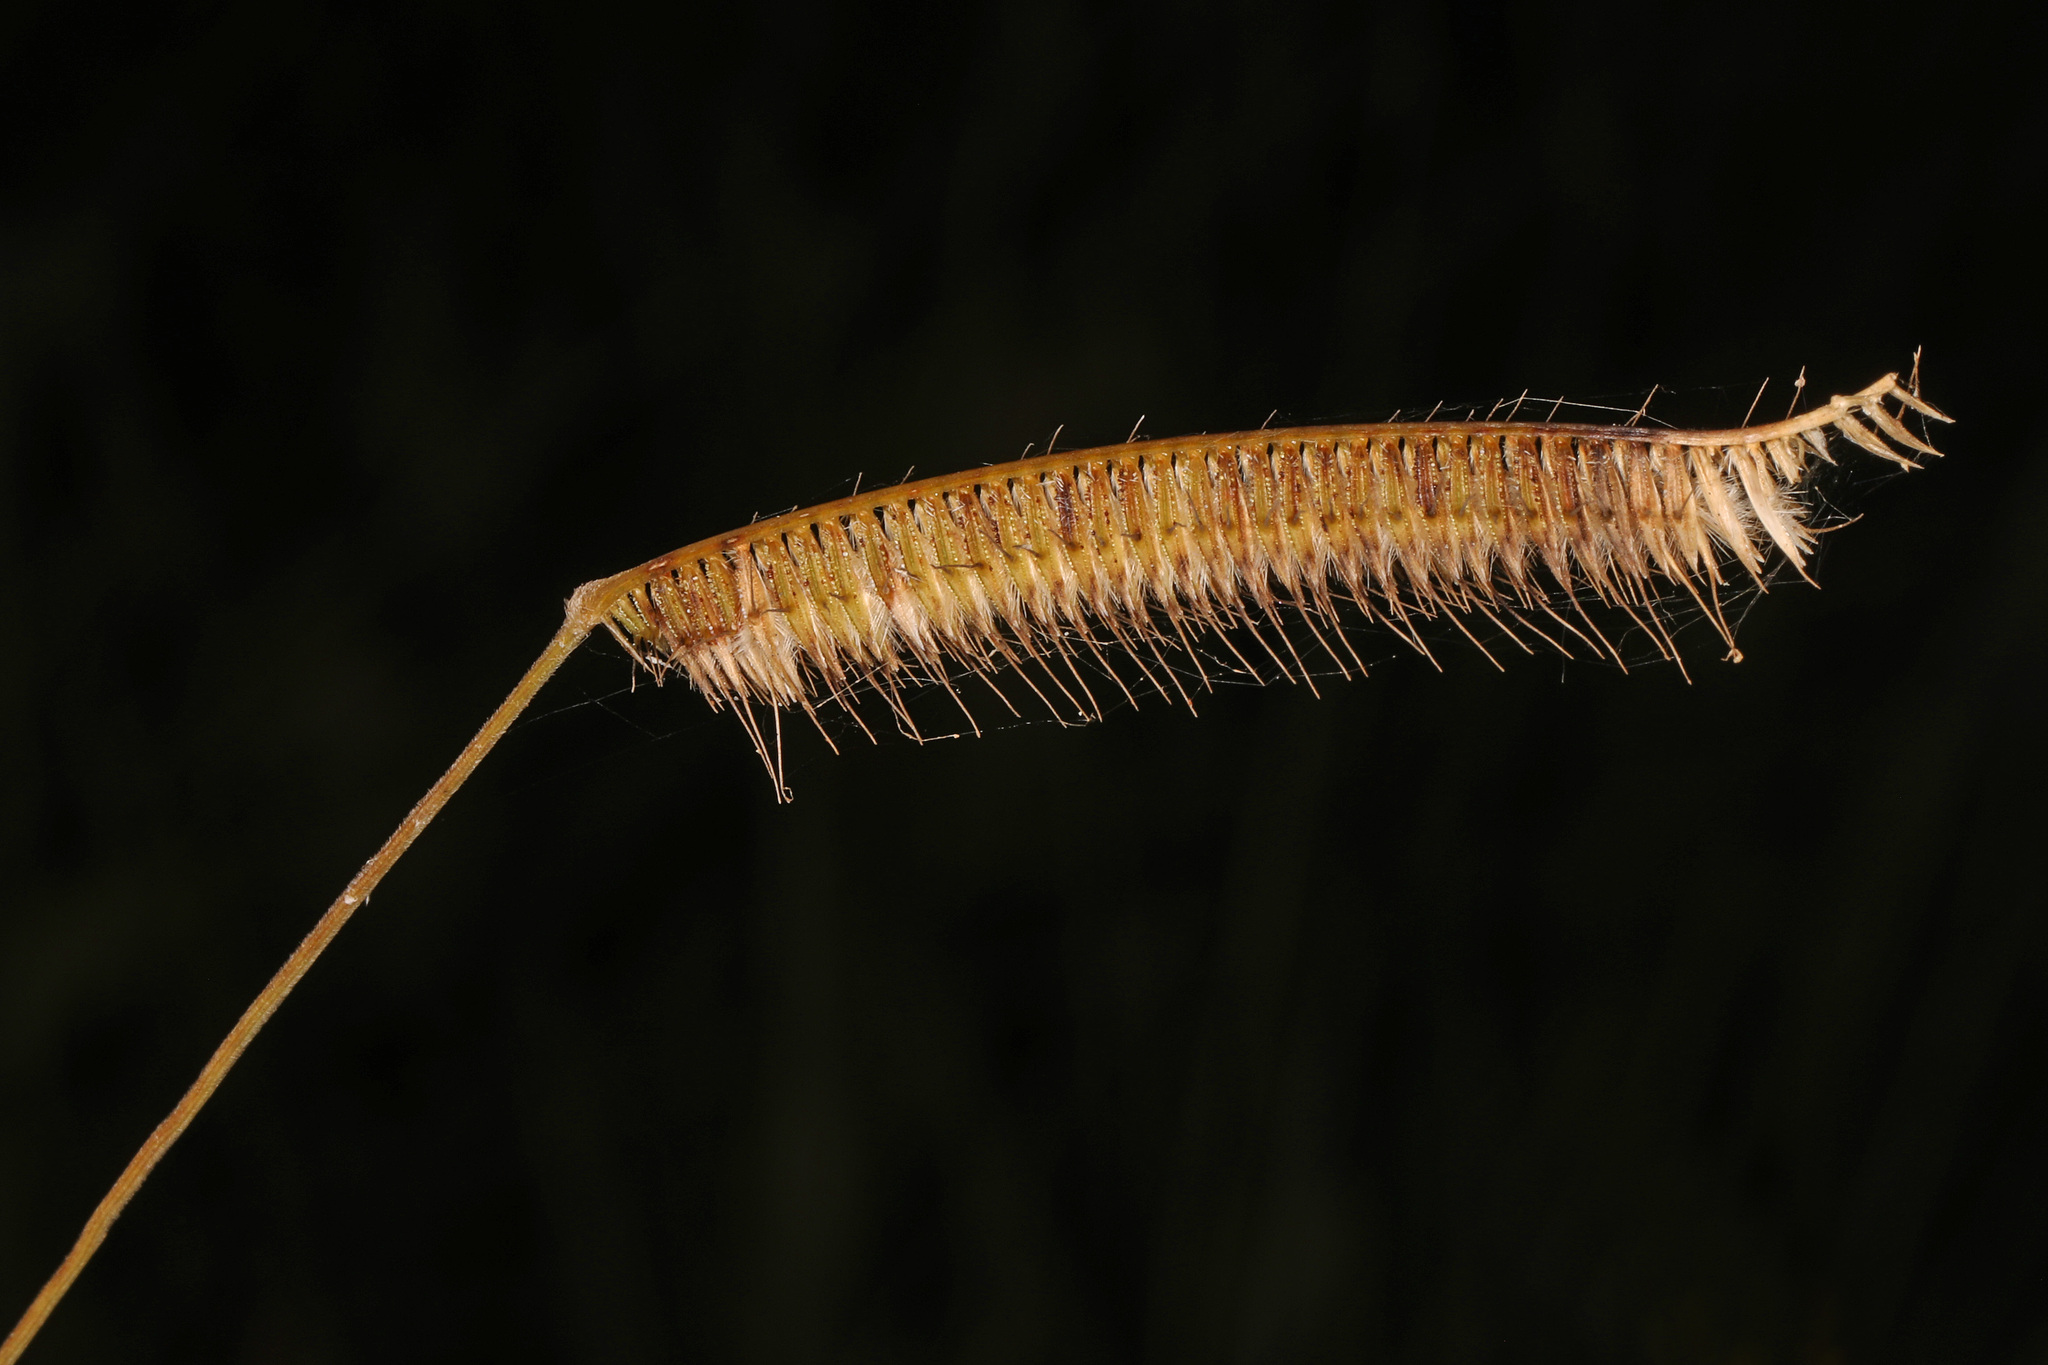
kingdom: Plantae
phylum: Tracheophyta
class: Liliopsida
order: Poales
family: Poaceae
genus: Ctenium
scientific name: Ctenium aromaticum
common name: Toothache grass
